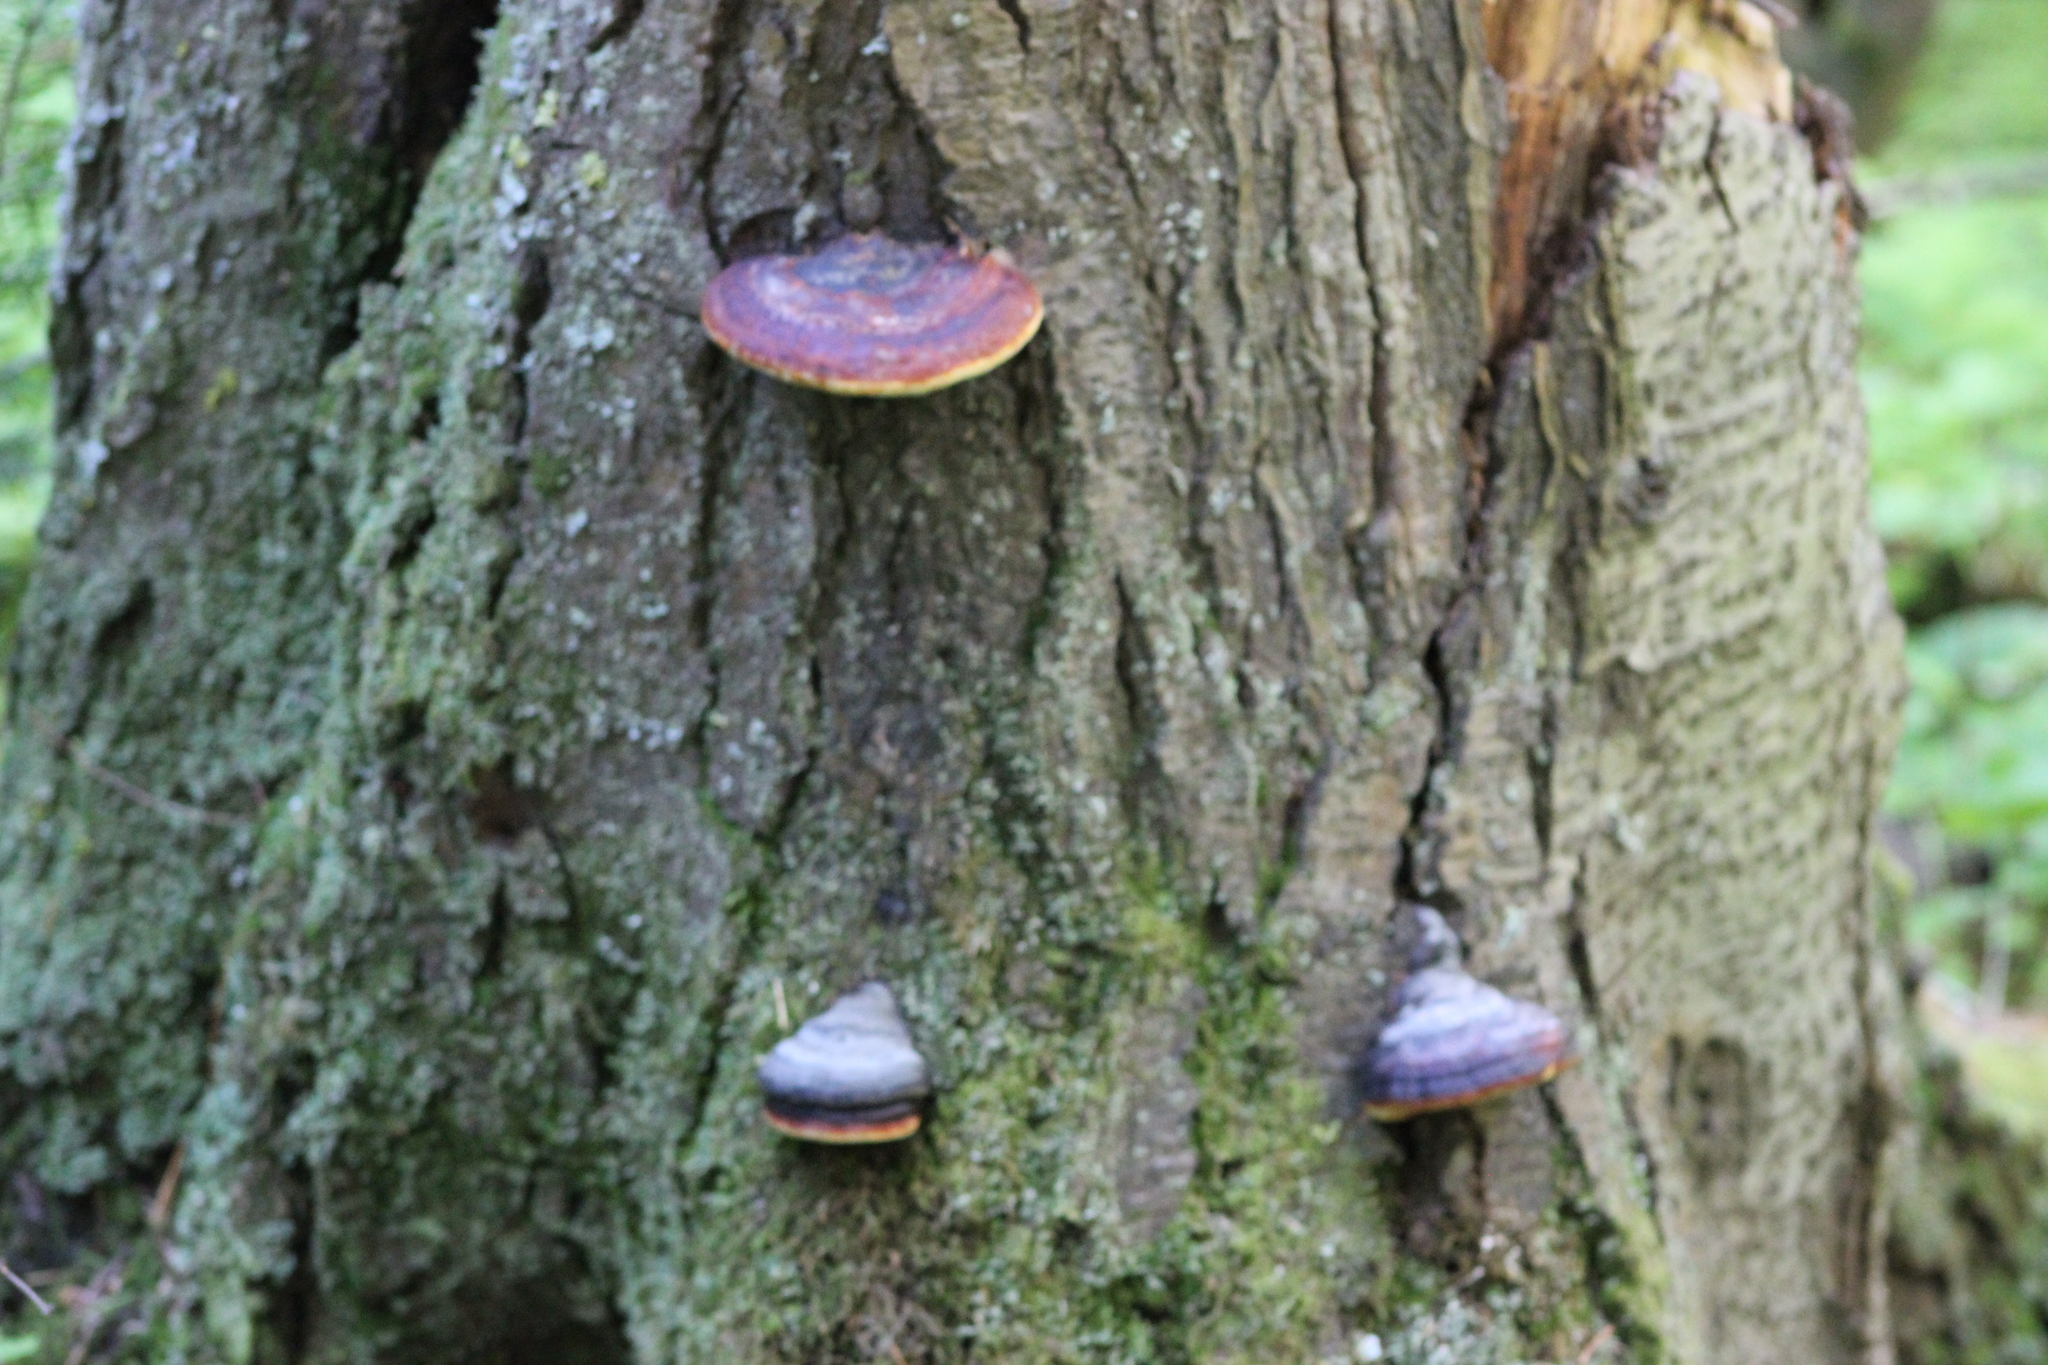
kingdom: Fungi
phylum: Basidiomycota
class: Agaricomycetes
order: Polyporales
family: Fomitopsidaceae
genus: Fomitopsis
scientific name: Fomitopsis pinicola
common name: Red-belted bracket
